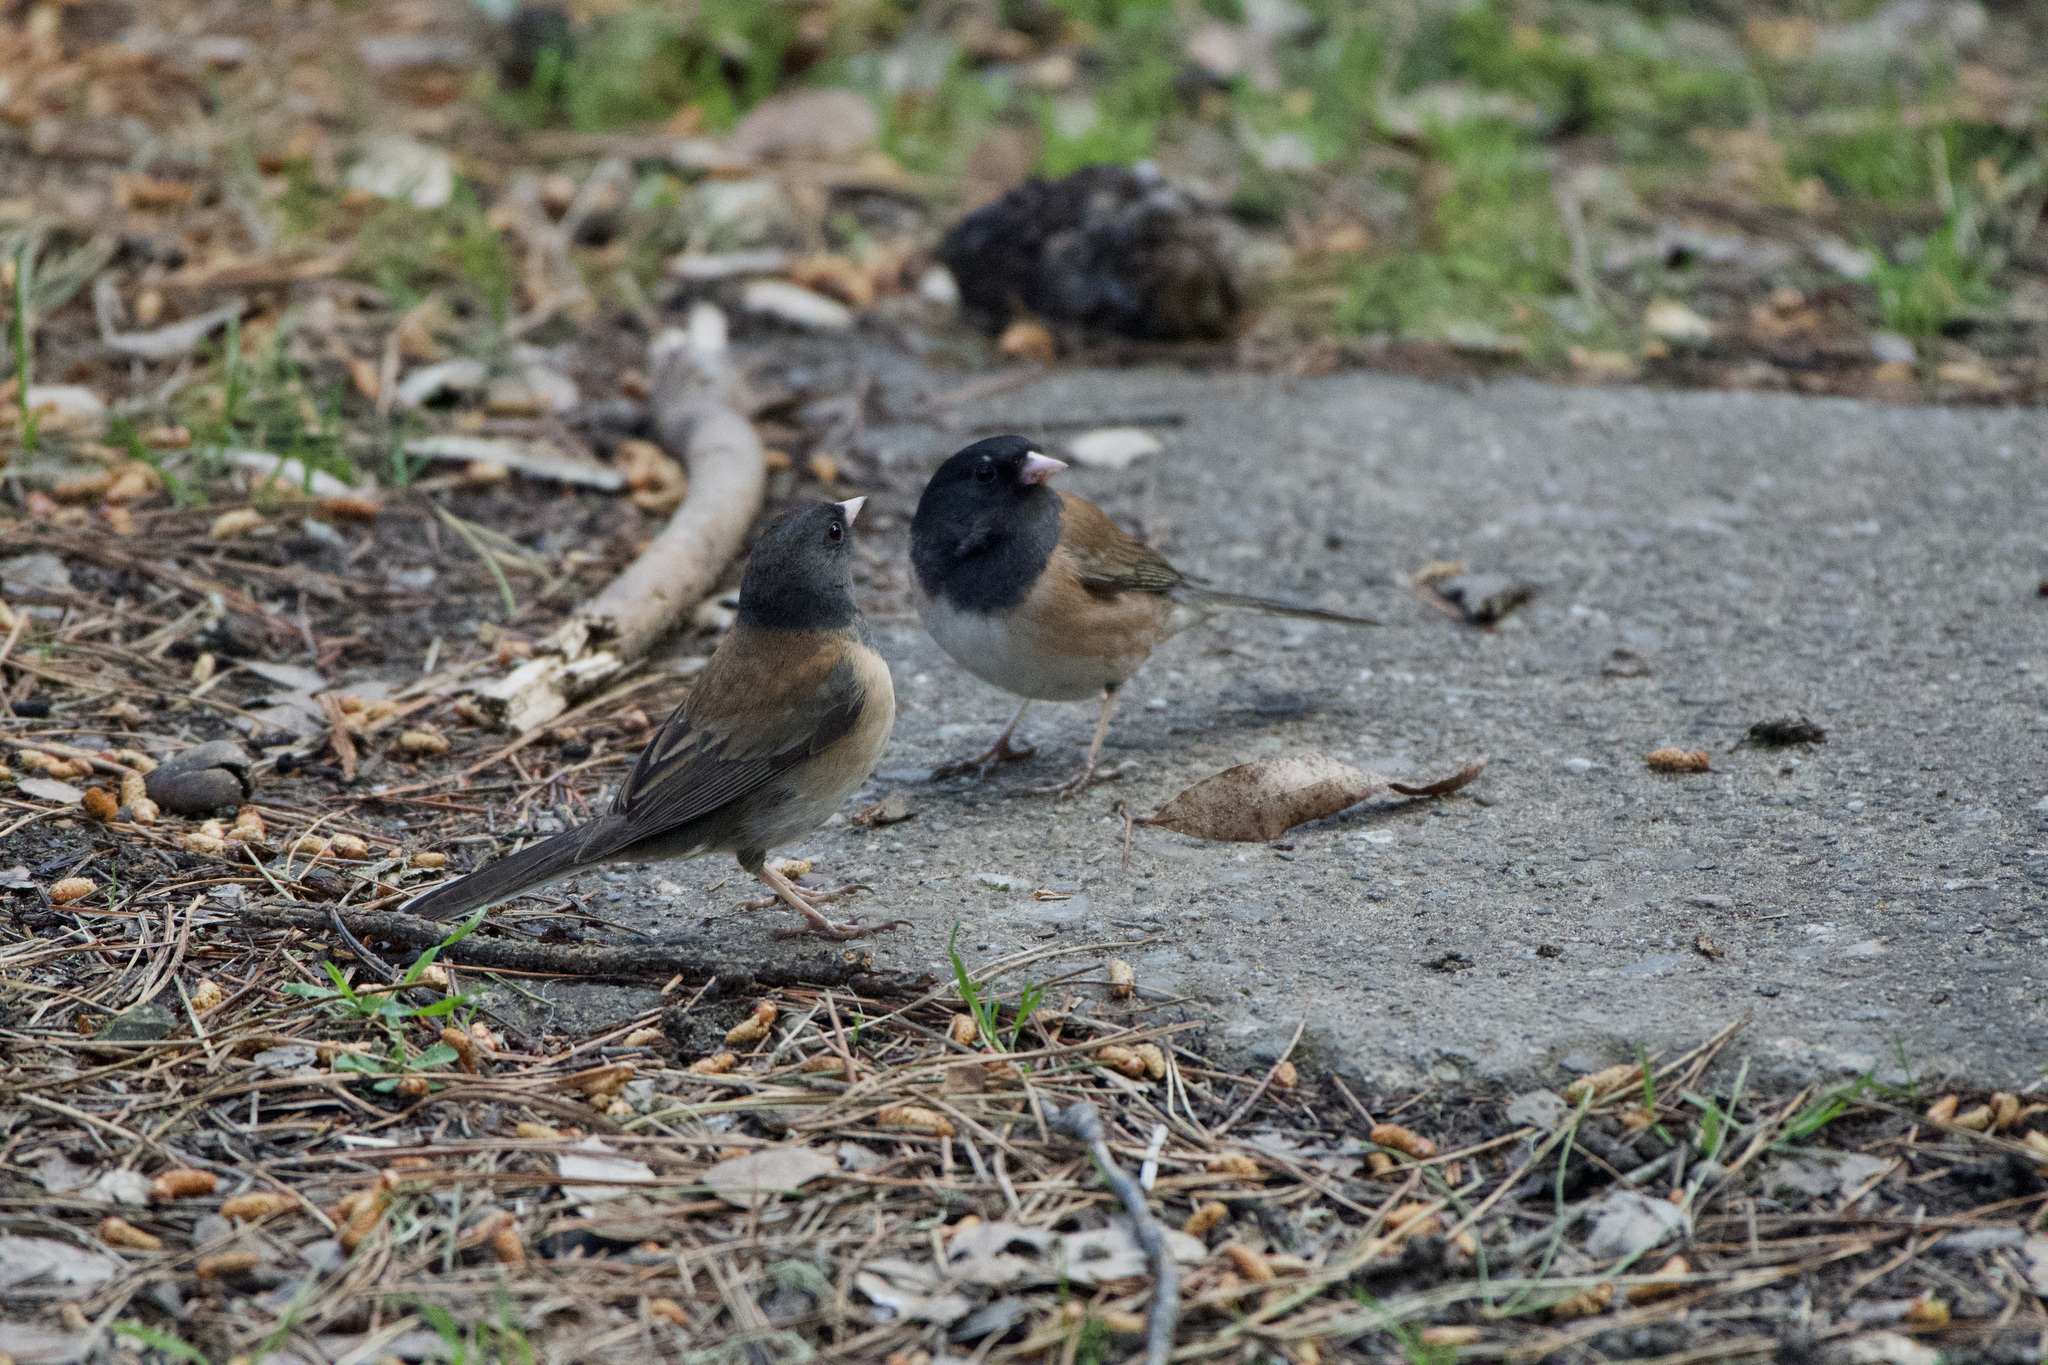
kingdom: Animalia
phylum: Chordata
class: Aves
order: Passeriformes
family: Passerellidae
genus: Junco
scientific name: Junco hyemalis
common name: Dark-eyed junco
